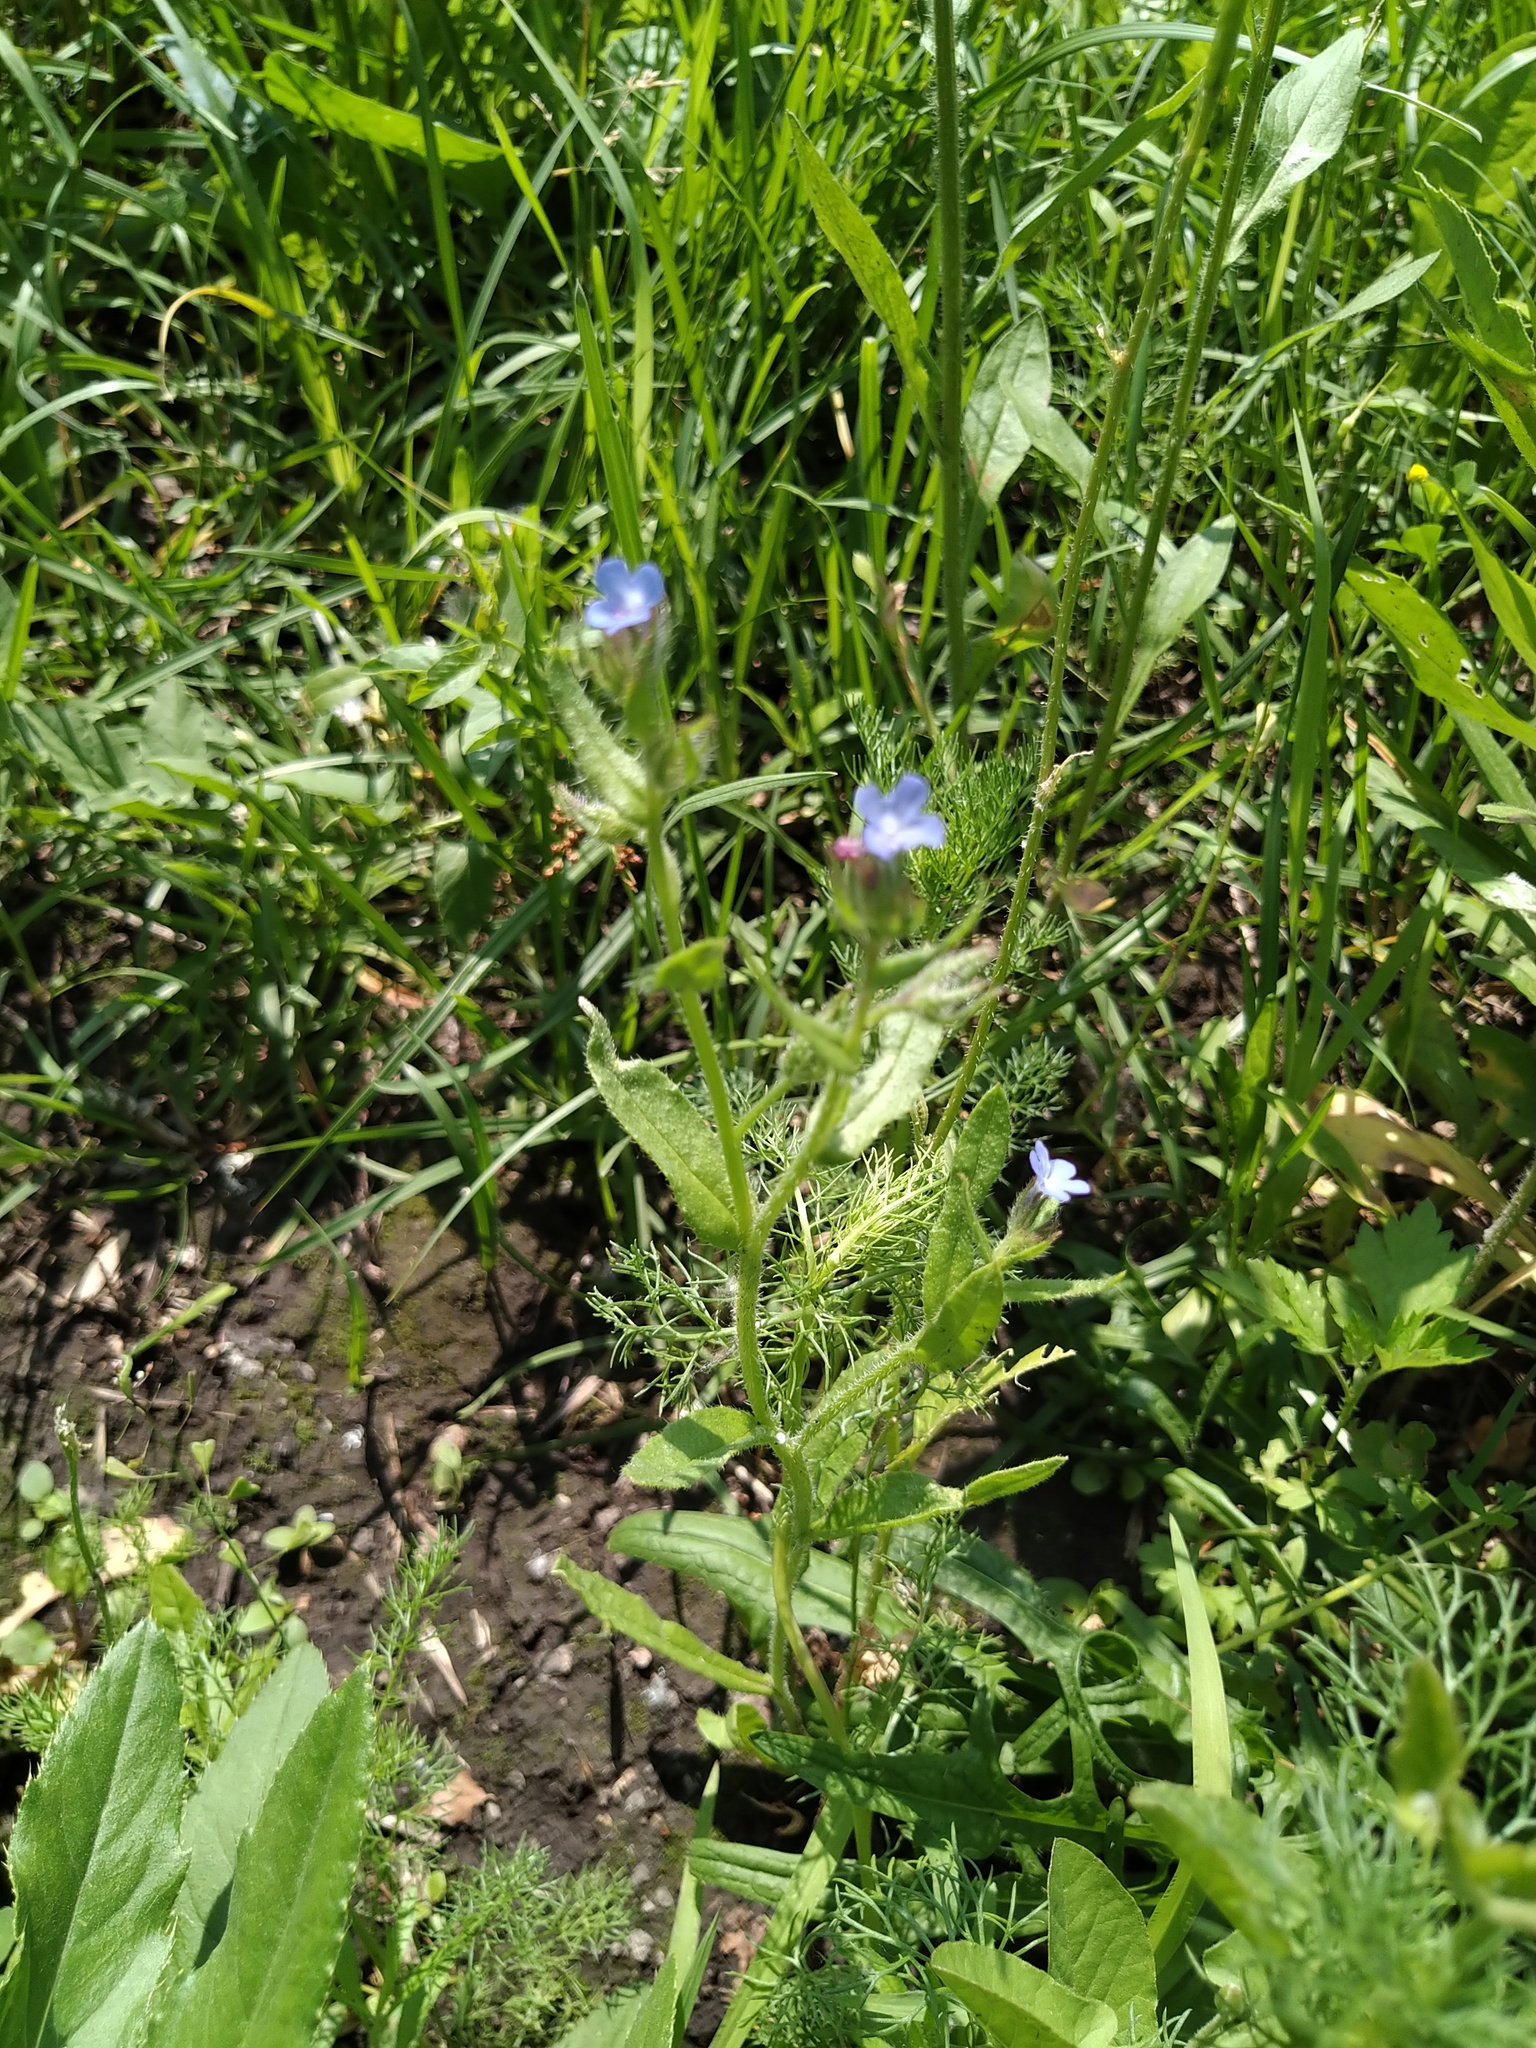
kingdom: Plantae
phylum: Tracheophyta
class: Magnoliopsida
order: Boraginales
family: Boraginaceae
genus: Lycopsis
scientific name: Lycopsis arvensis
